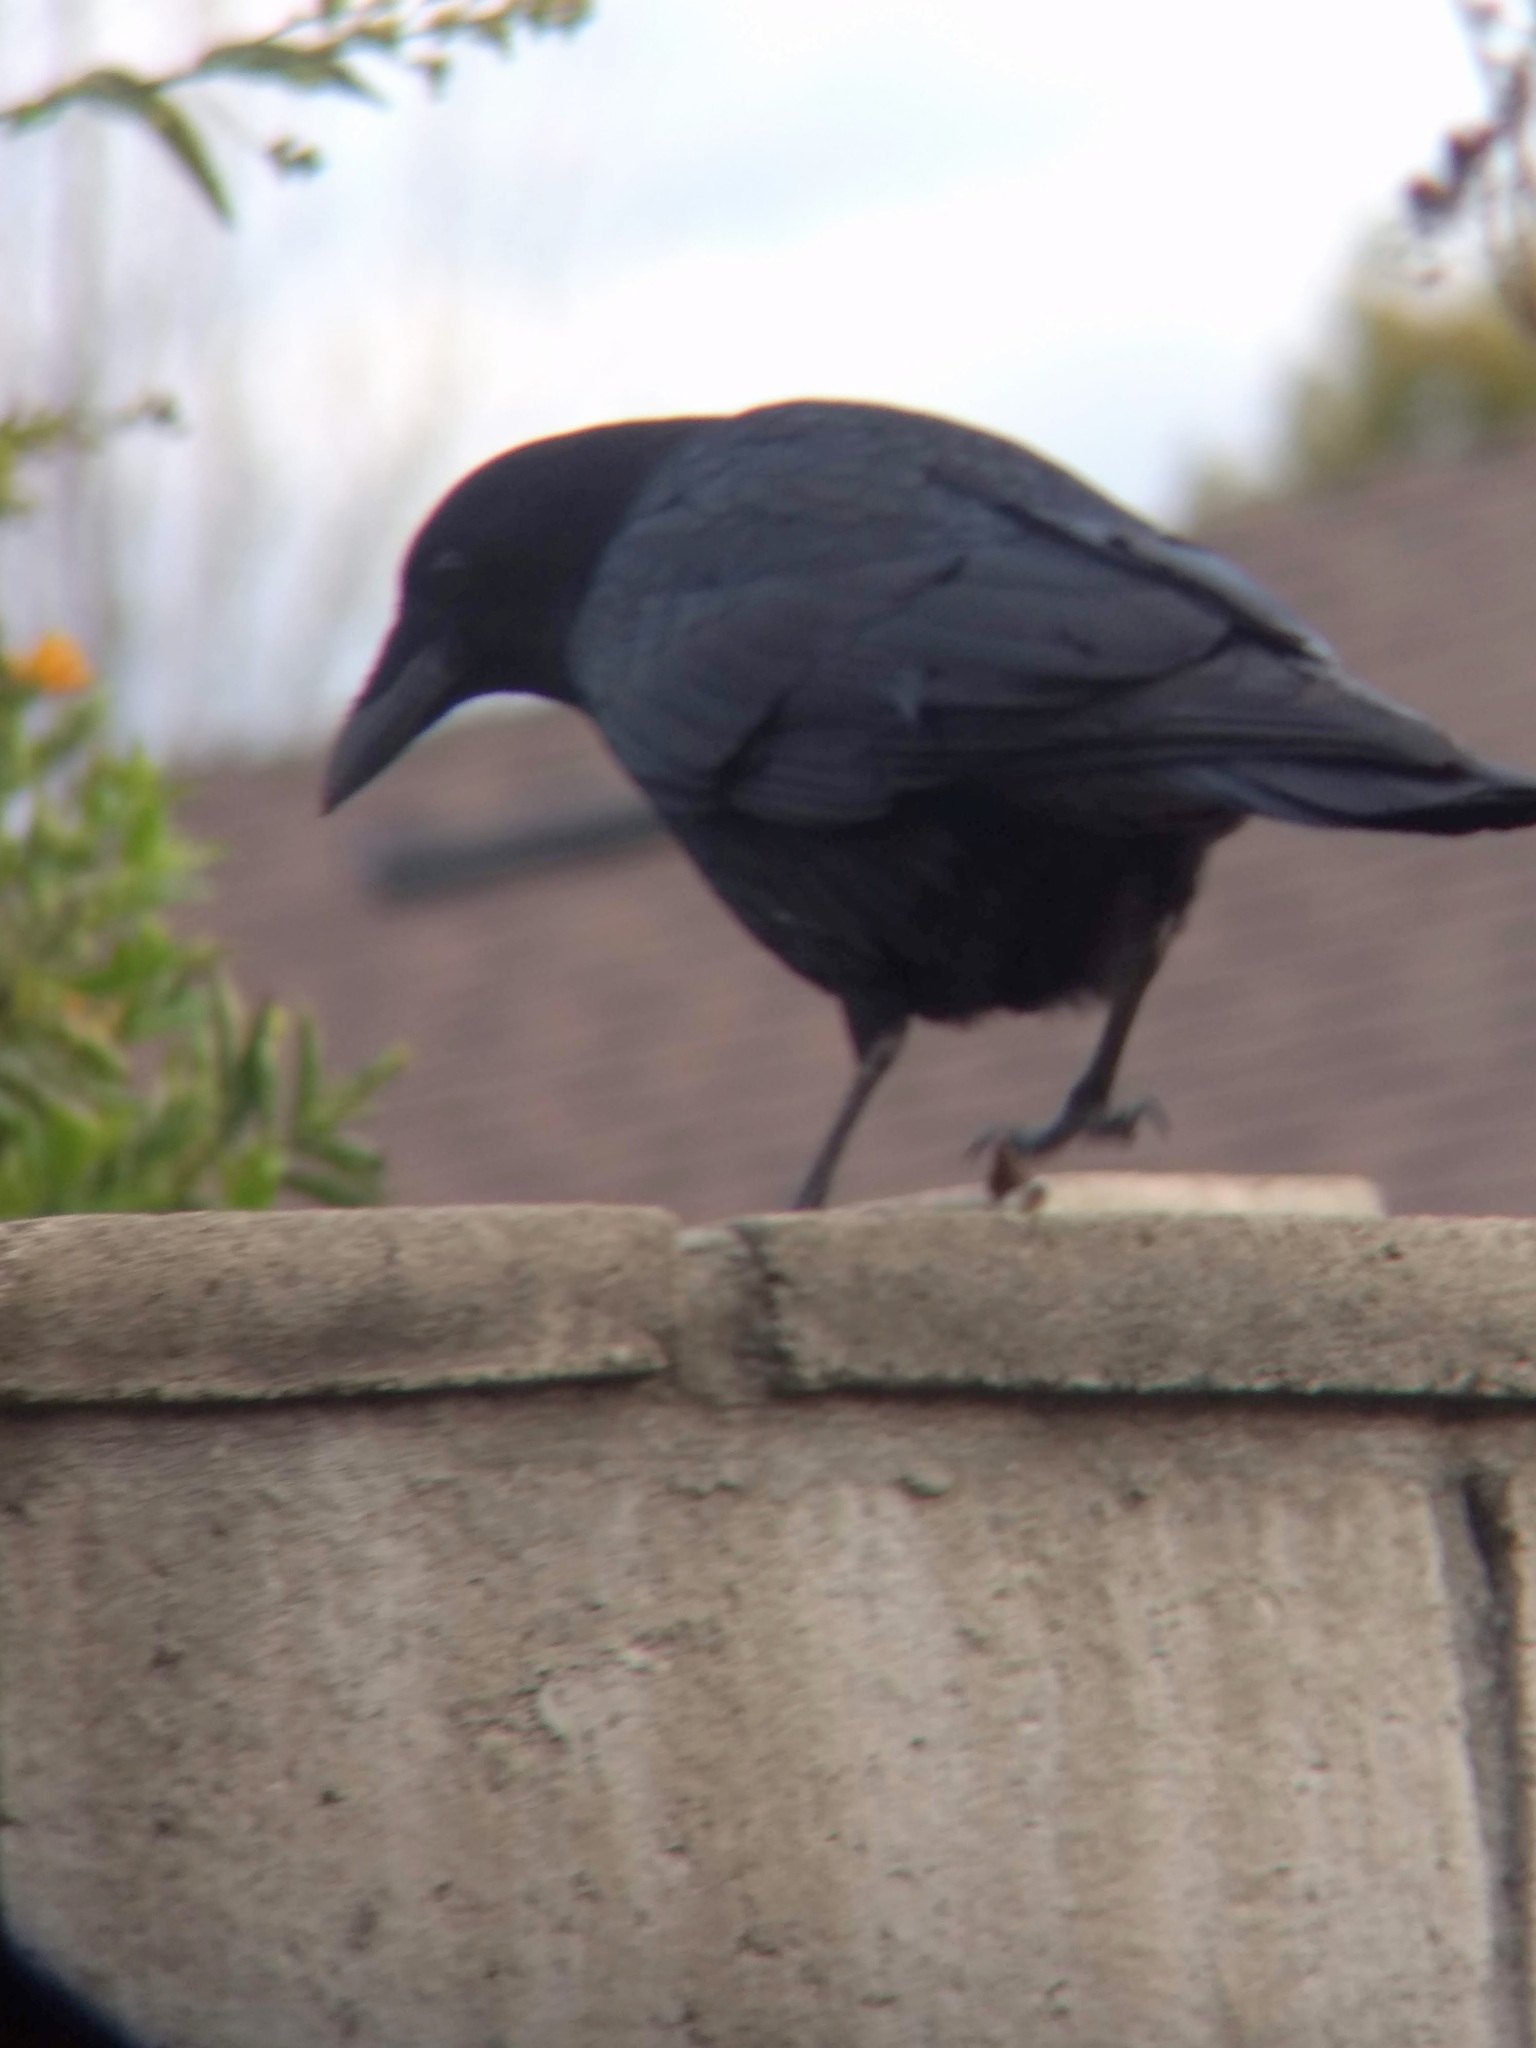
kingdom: Animalia
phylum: Chordata
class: Aves
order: Passeriformes
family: Corvidae
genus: Corvus
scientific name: Corvus brachyrhynchos
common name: American crow
